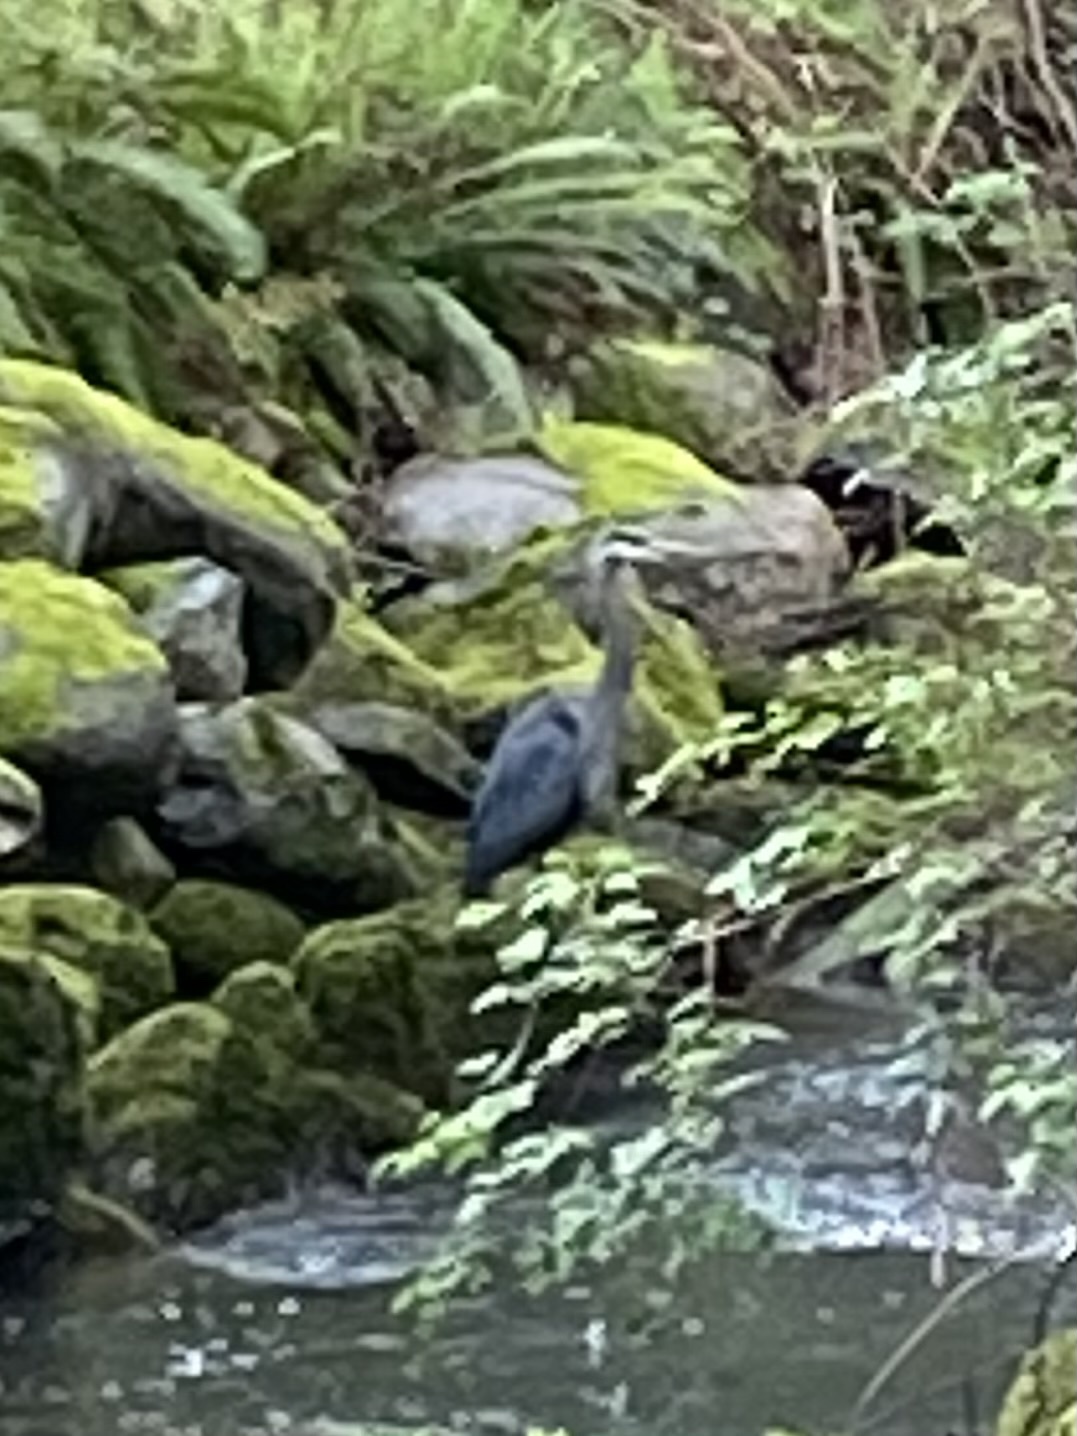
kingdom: Animalia
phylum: Chordata
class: Aves
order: Pelecaniformes
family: Ardeidae
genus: Ardea
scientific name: Ardea herodias
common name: Great blue heron
